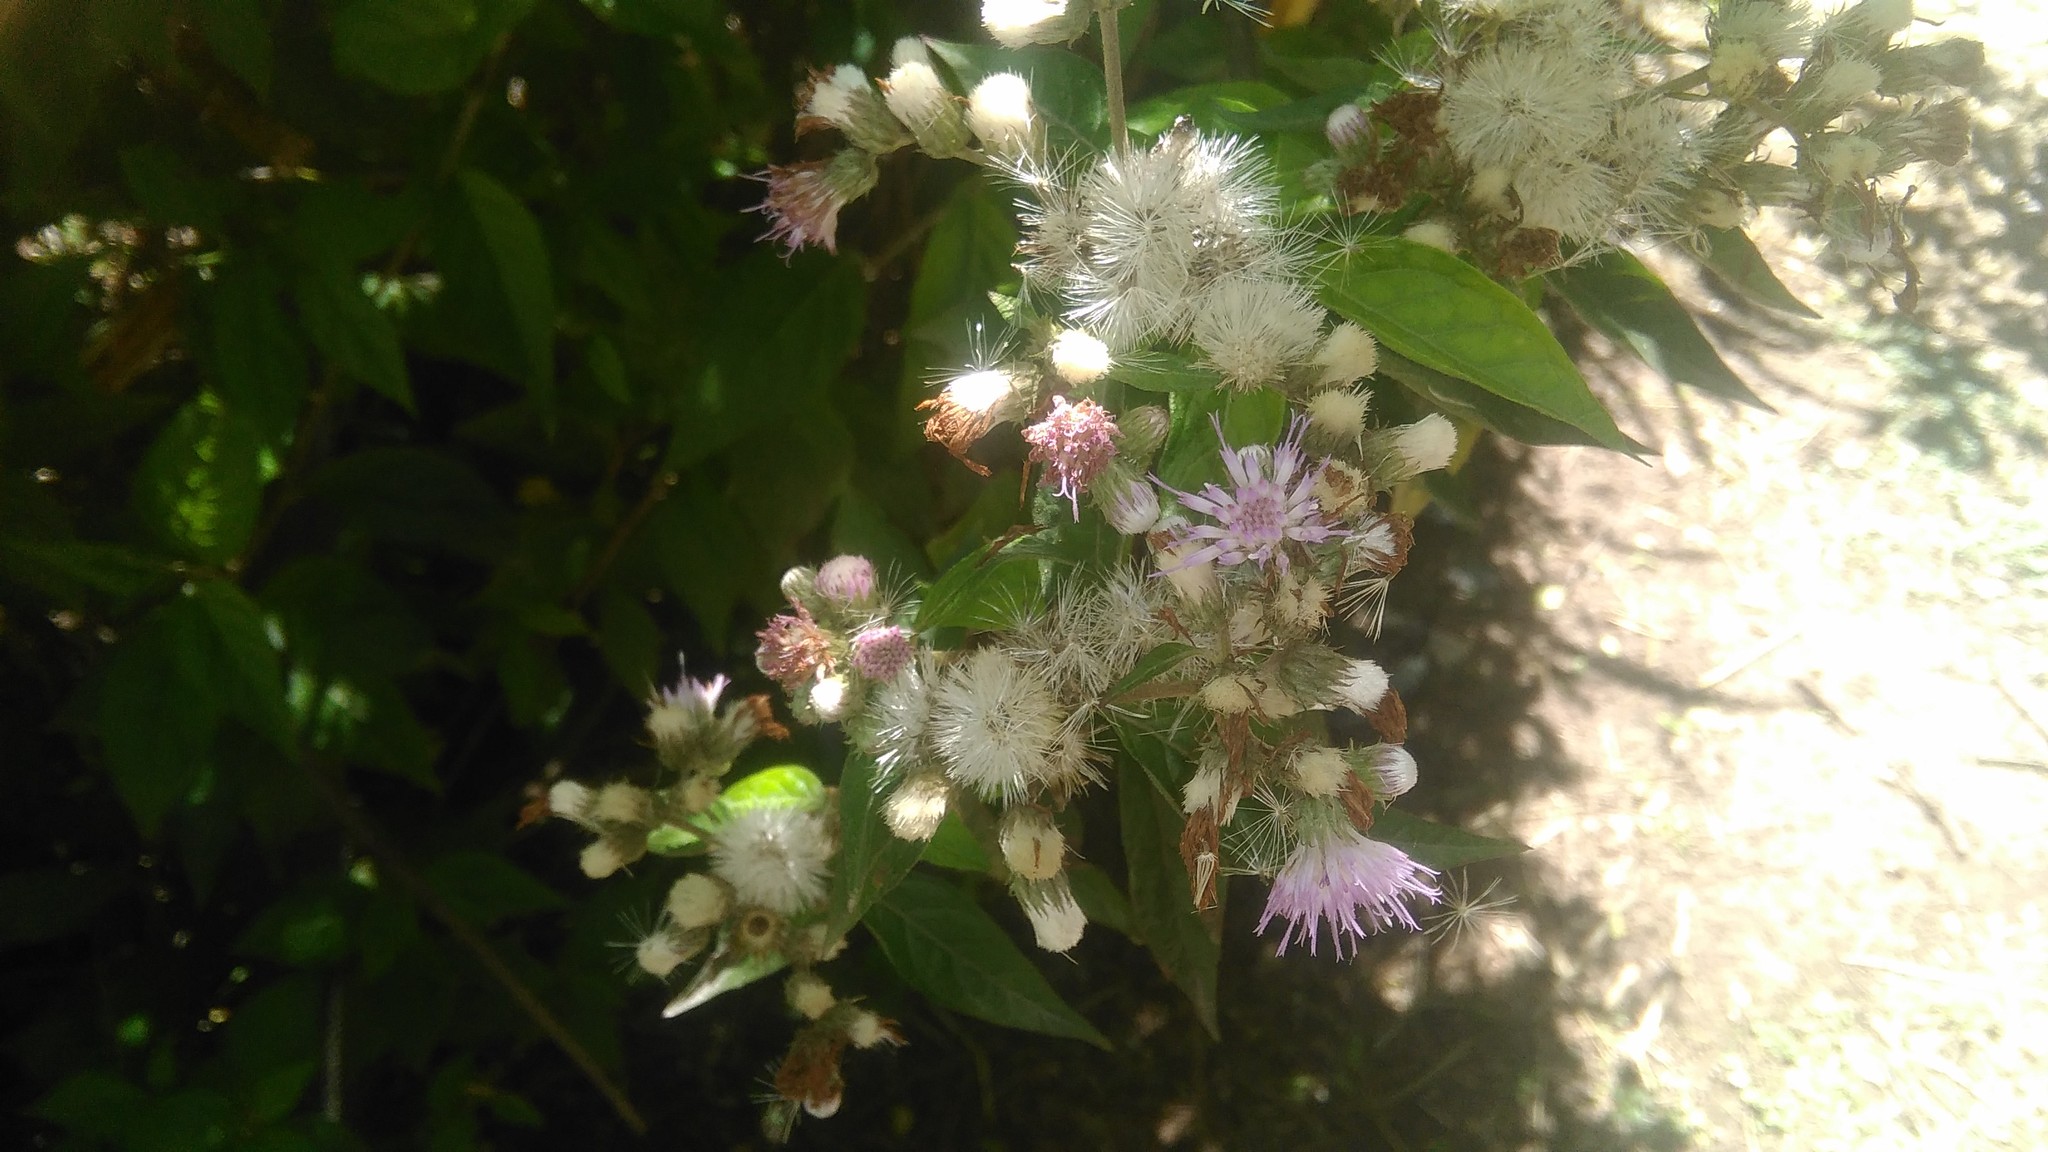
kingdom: Plantae
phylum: Tracheophyta
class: Magnoliopsida
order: Asterales
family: Asteraceae
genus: Cyrtocymura
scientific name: Cyrtocymura scorpioides
